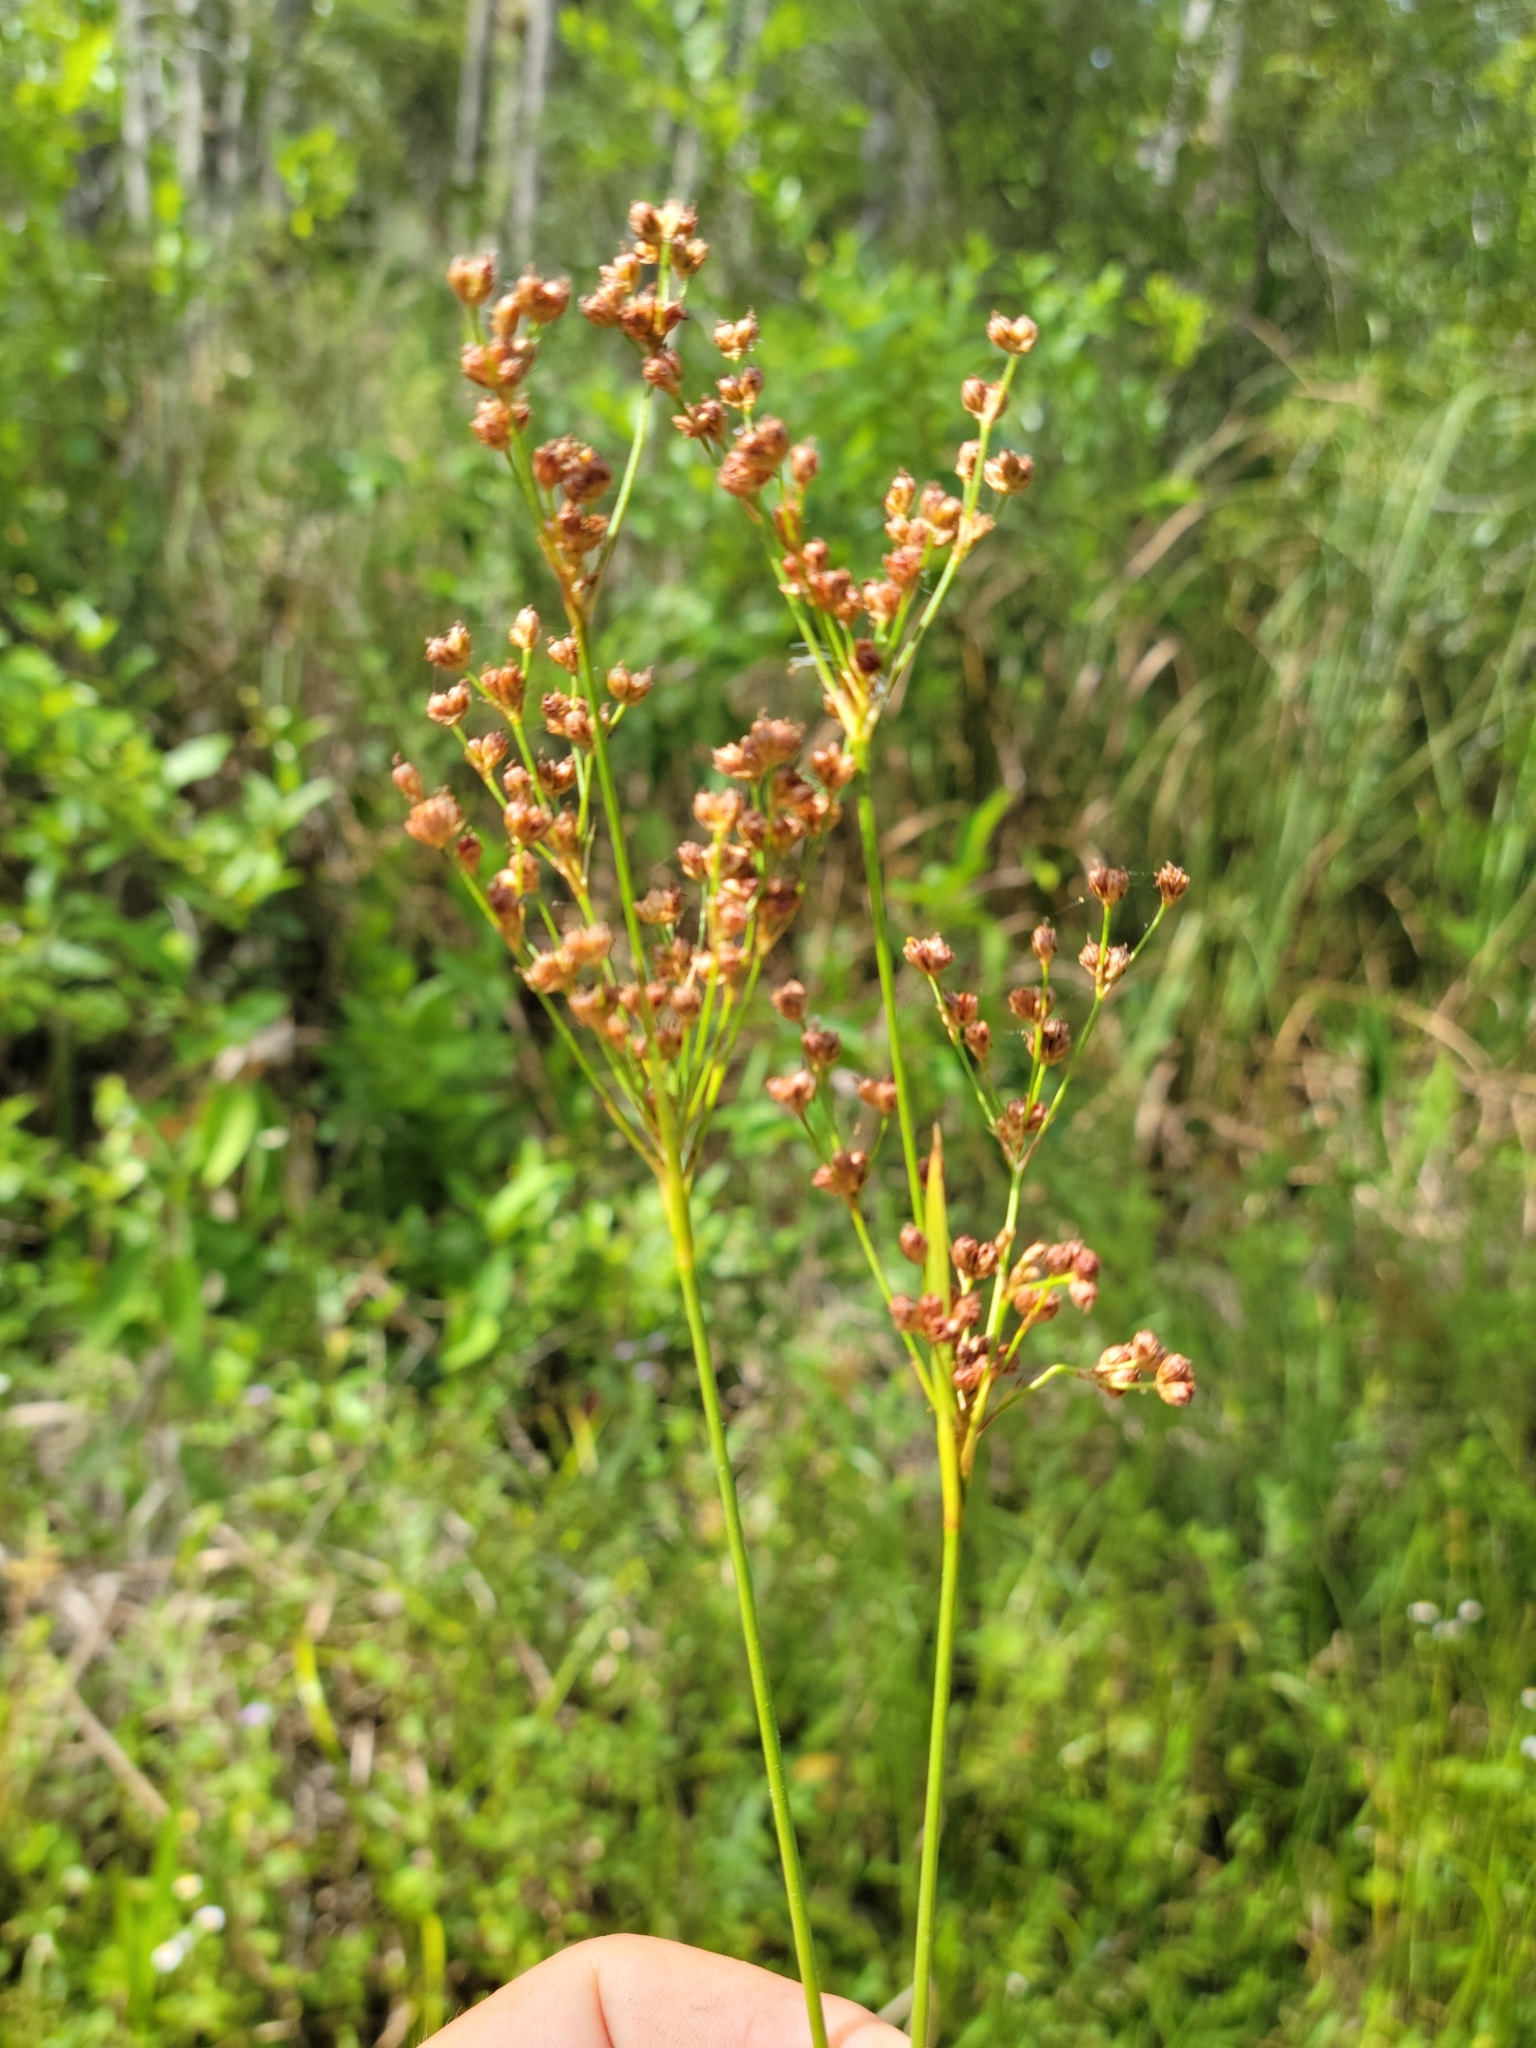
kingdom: Plantae
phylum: Tracheophyta
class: Liliopsida
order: Poales
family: Juncaceae
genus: Juncus
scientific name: Juncus biflorus
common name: Two-flowered rush
